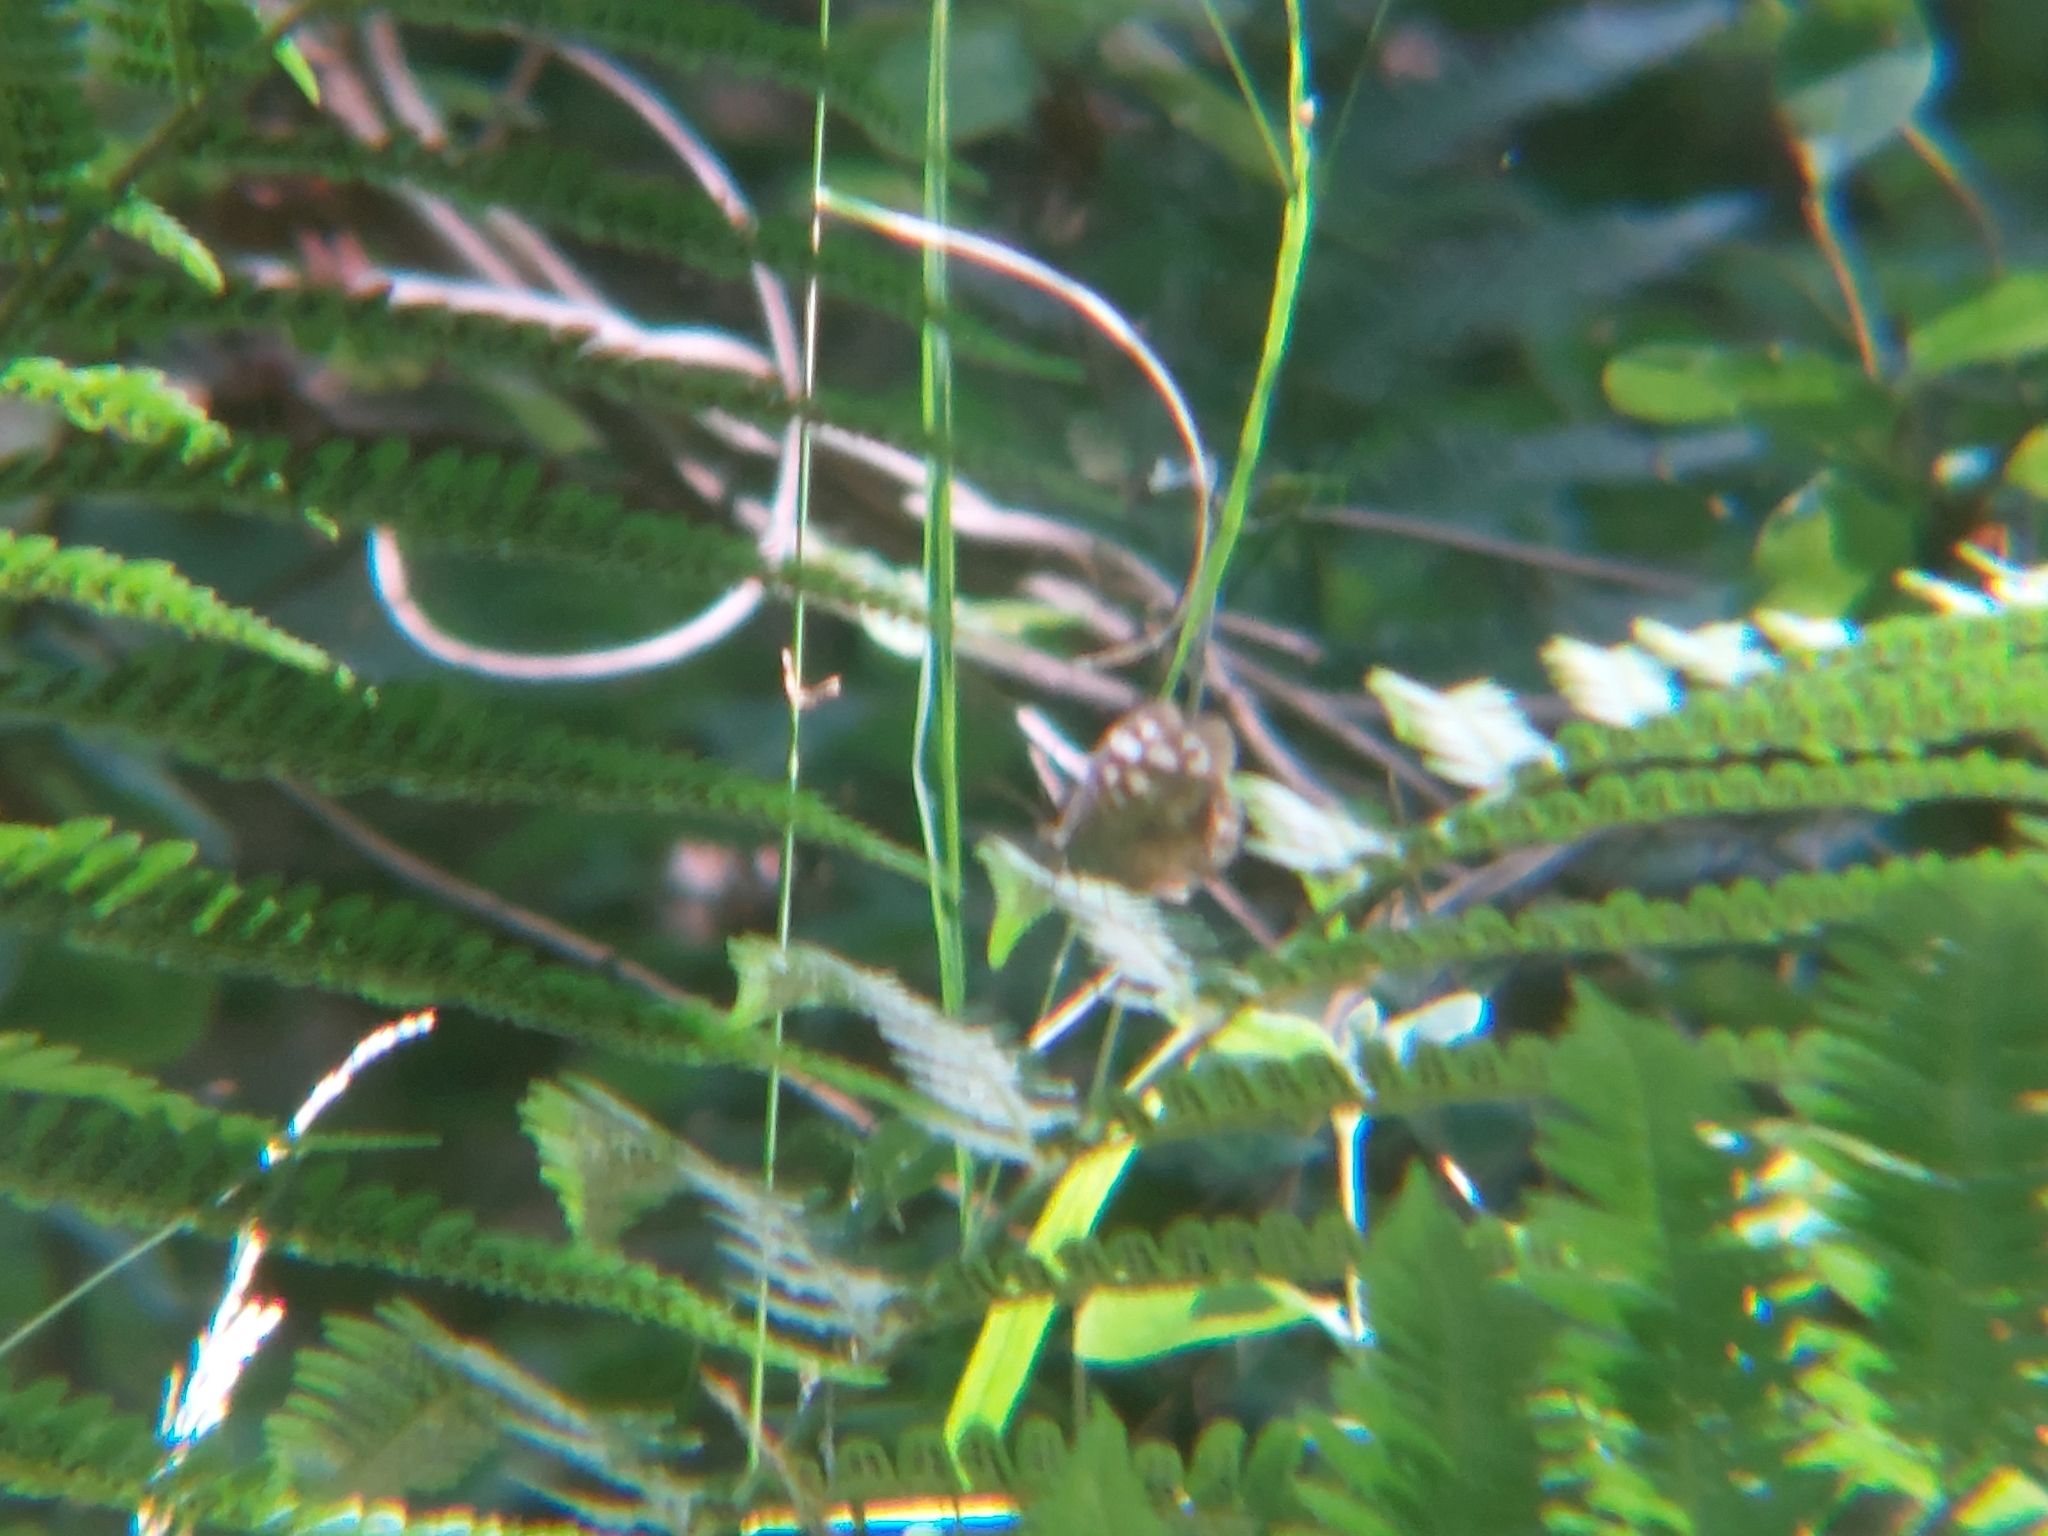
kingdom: Animalia
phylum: Arthropoda
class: Insecta
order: Lepidoptera
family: Nymphalidae
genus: Pararge
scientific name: Pararge aegeria
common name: Speckled wood
